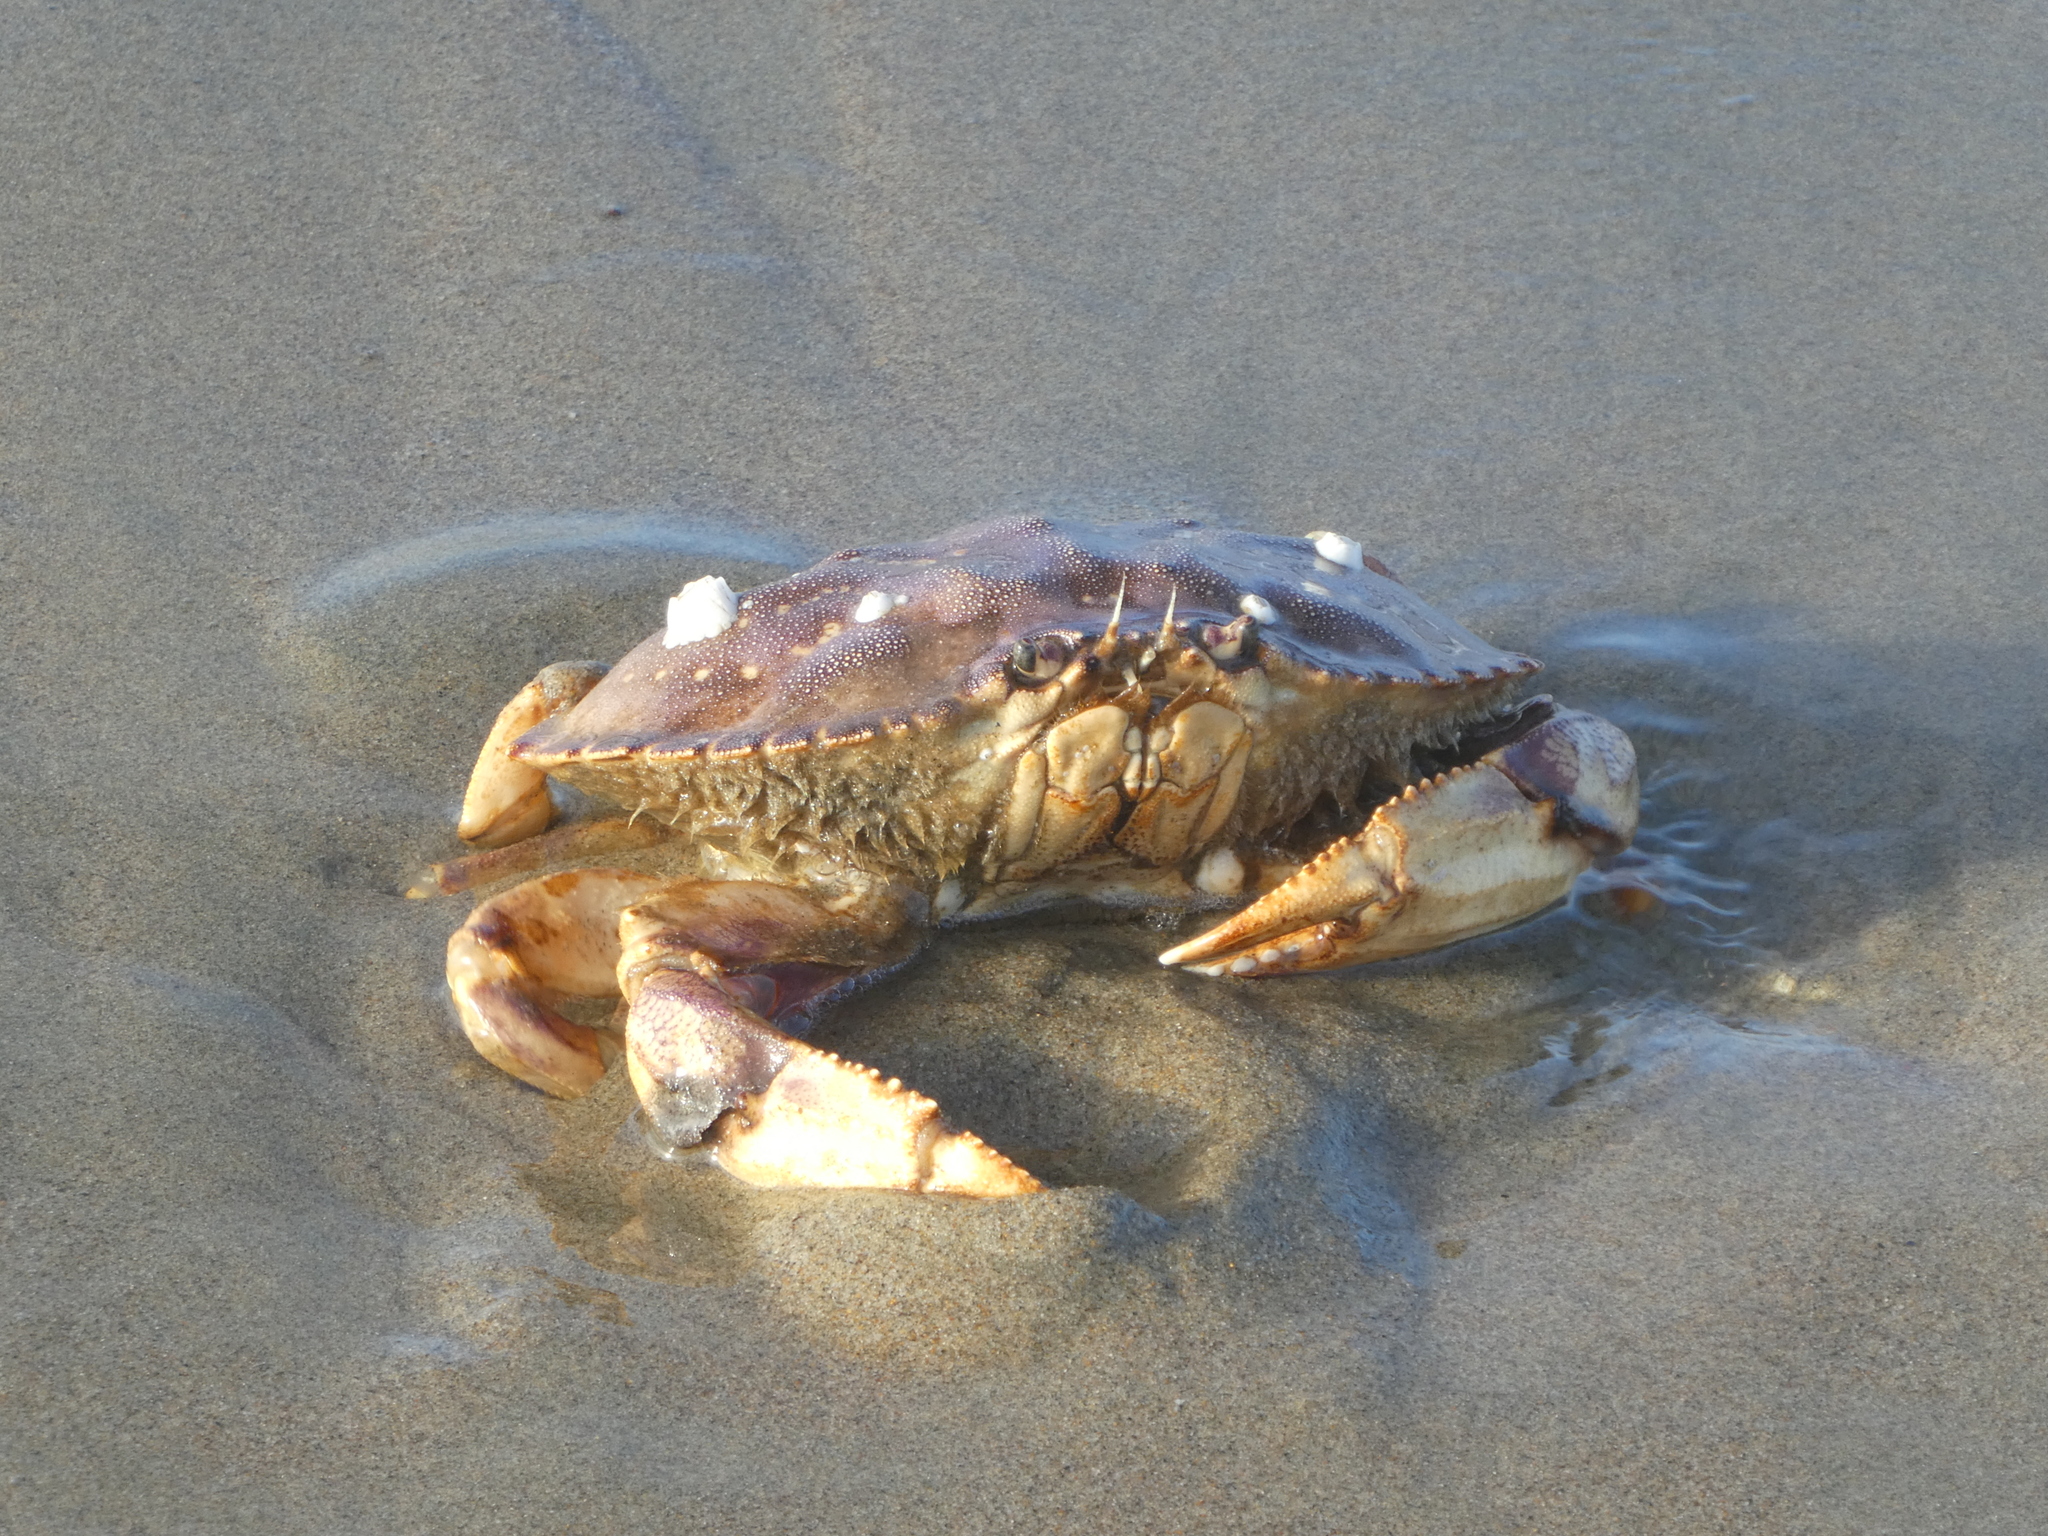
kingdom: Animalia
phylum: Arthropoda
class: Malacostraca
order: Decapoda
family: Cancridae
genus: Metacarcinus
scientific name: Metacarcinus magister
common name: Californian crab
